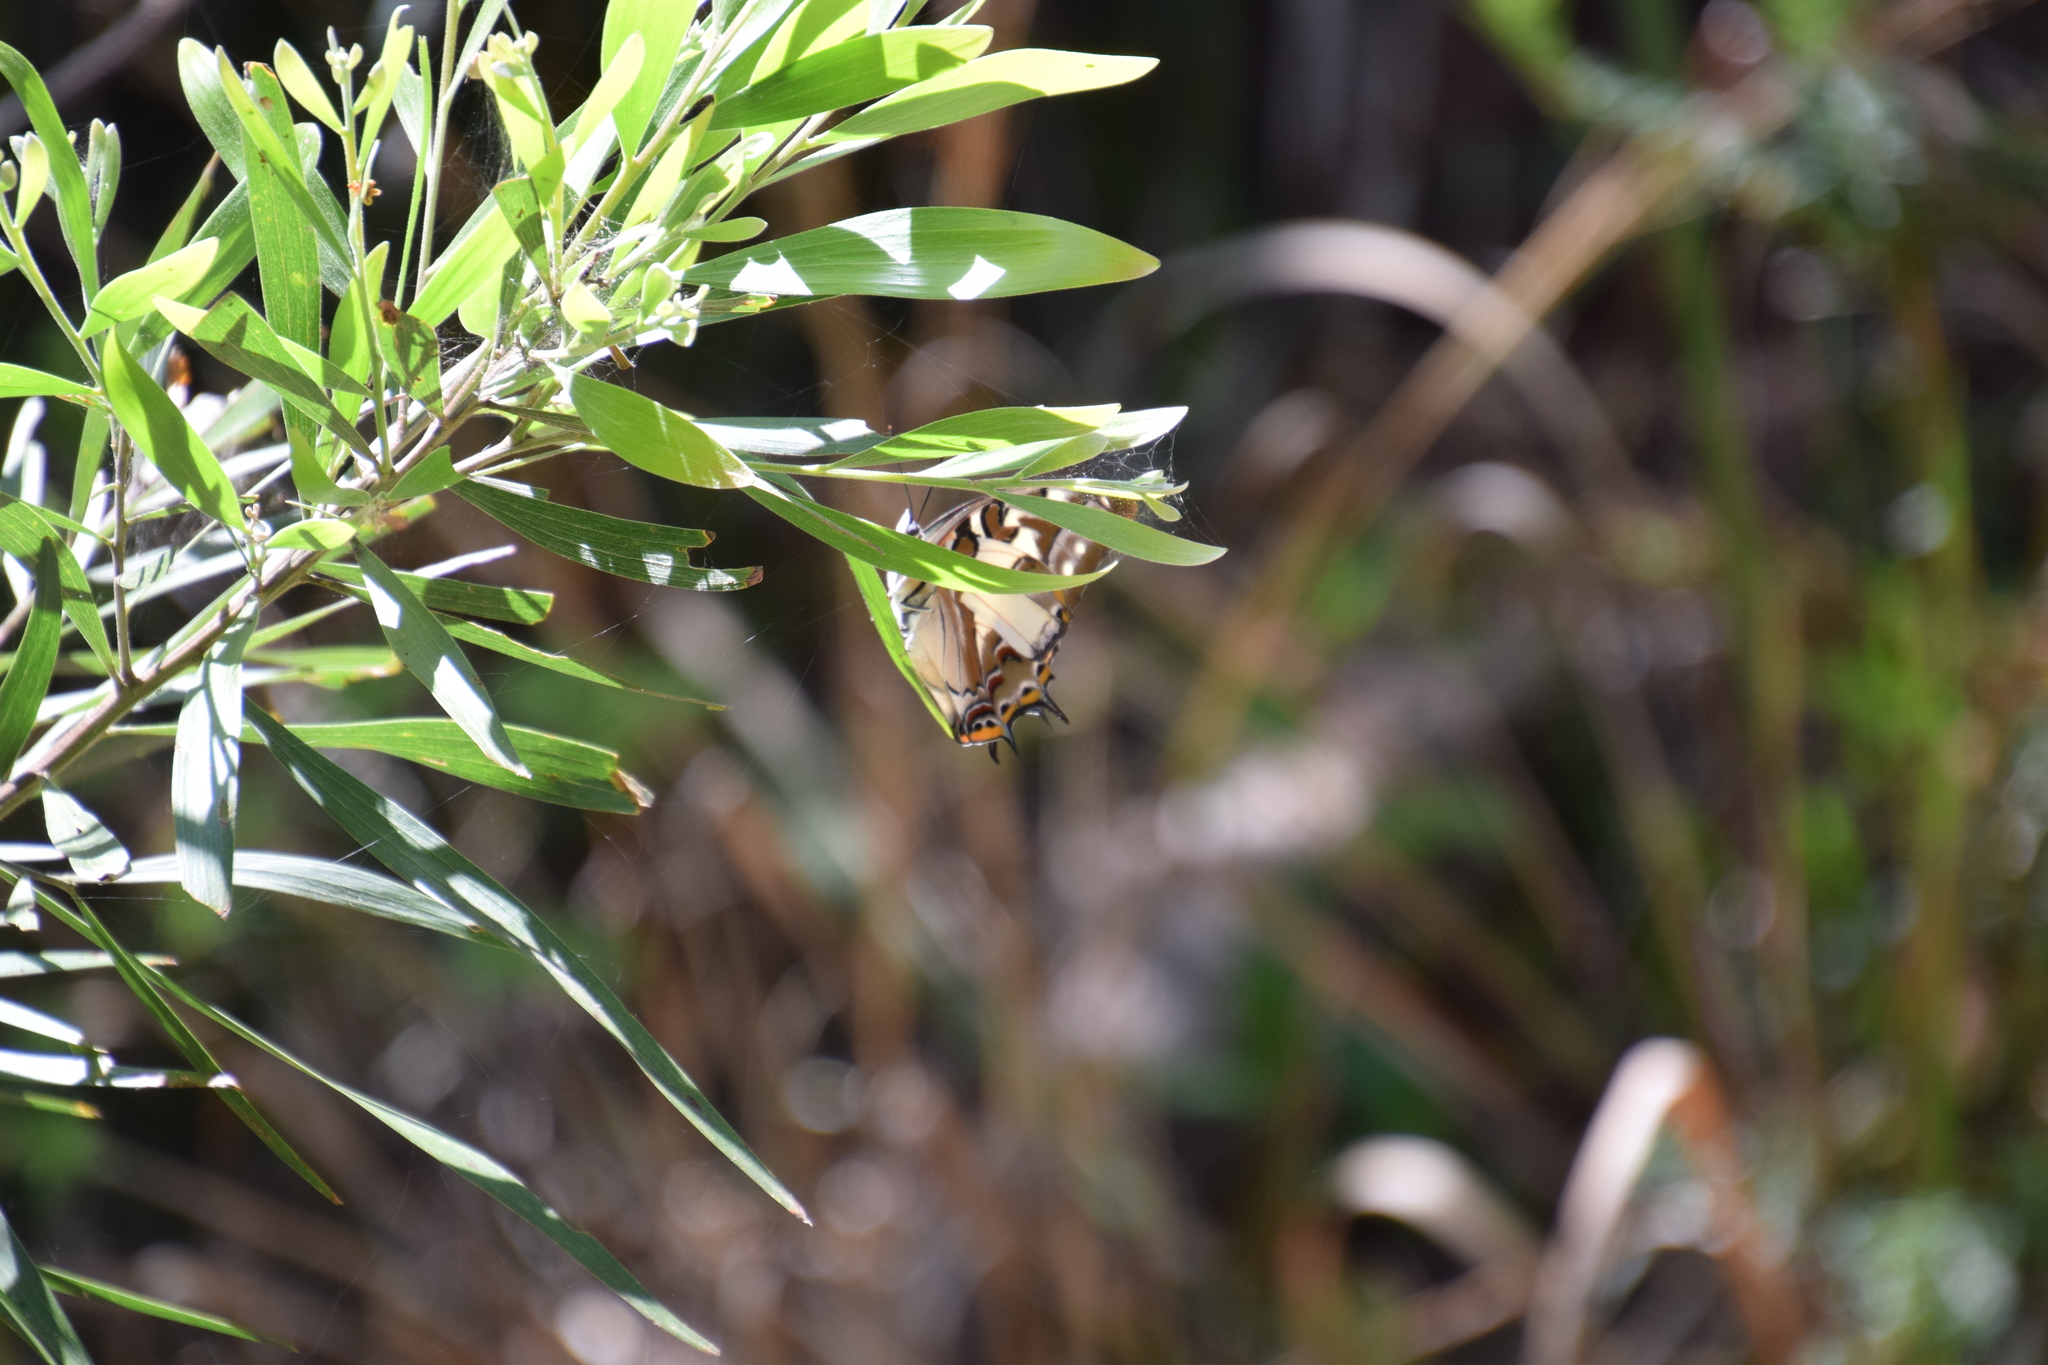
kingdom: Animalia
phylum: Arthropoda
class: Insecta
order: Lepidoptera
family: Nymphalidae
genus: Charaxes
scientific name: Charaxes
